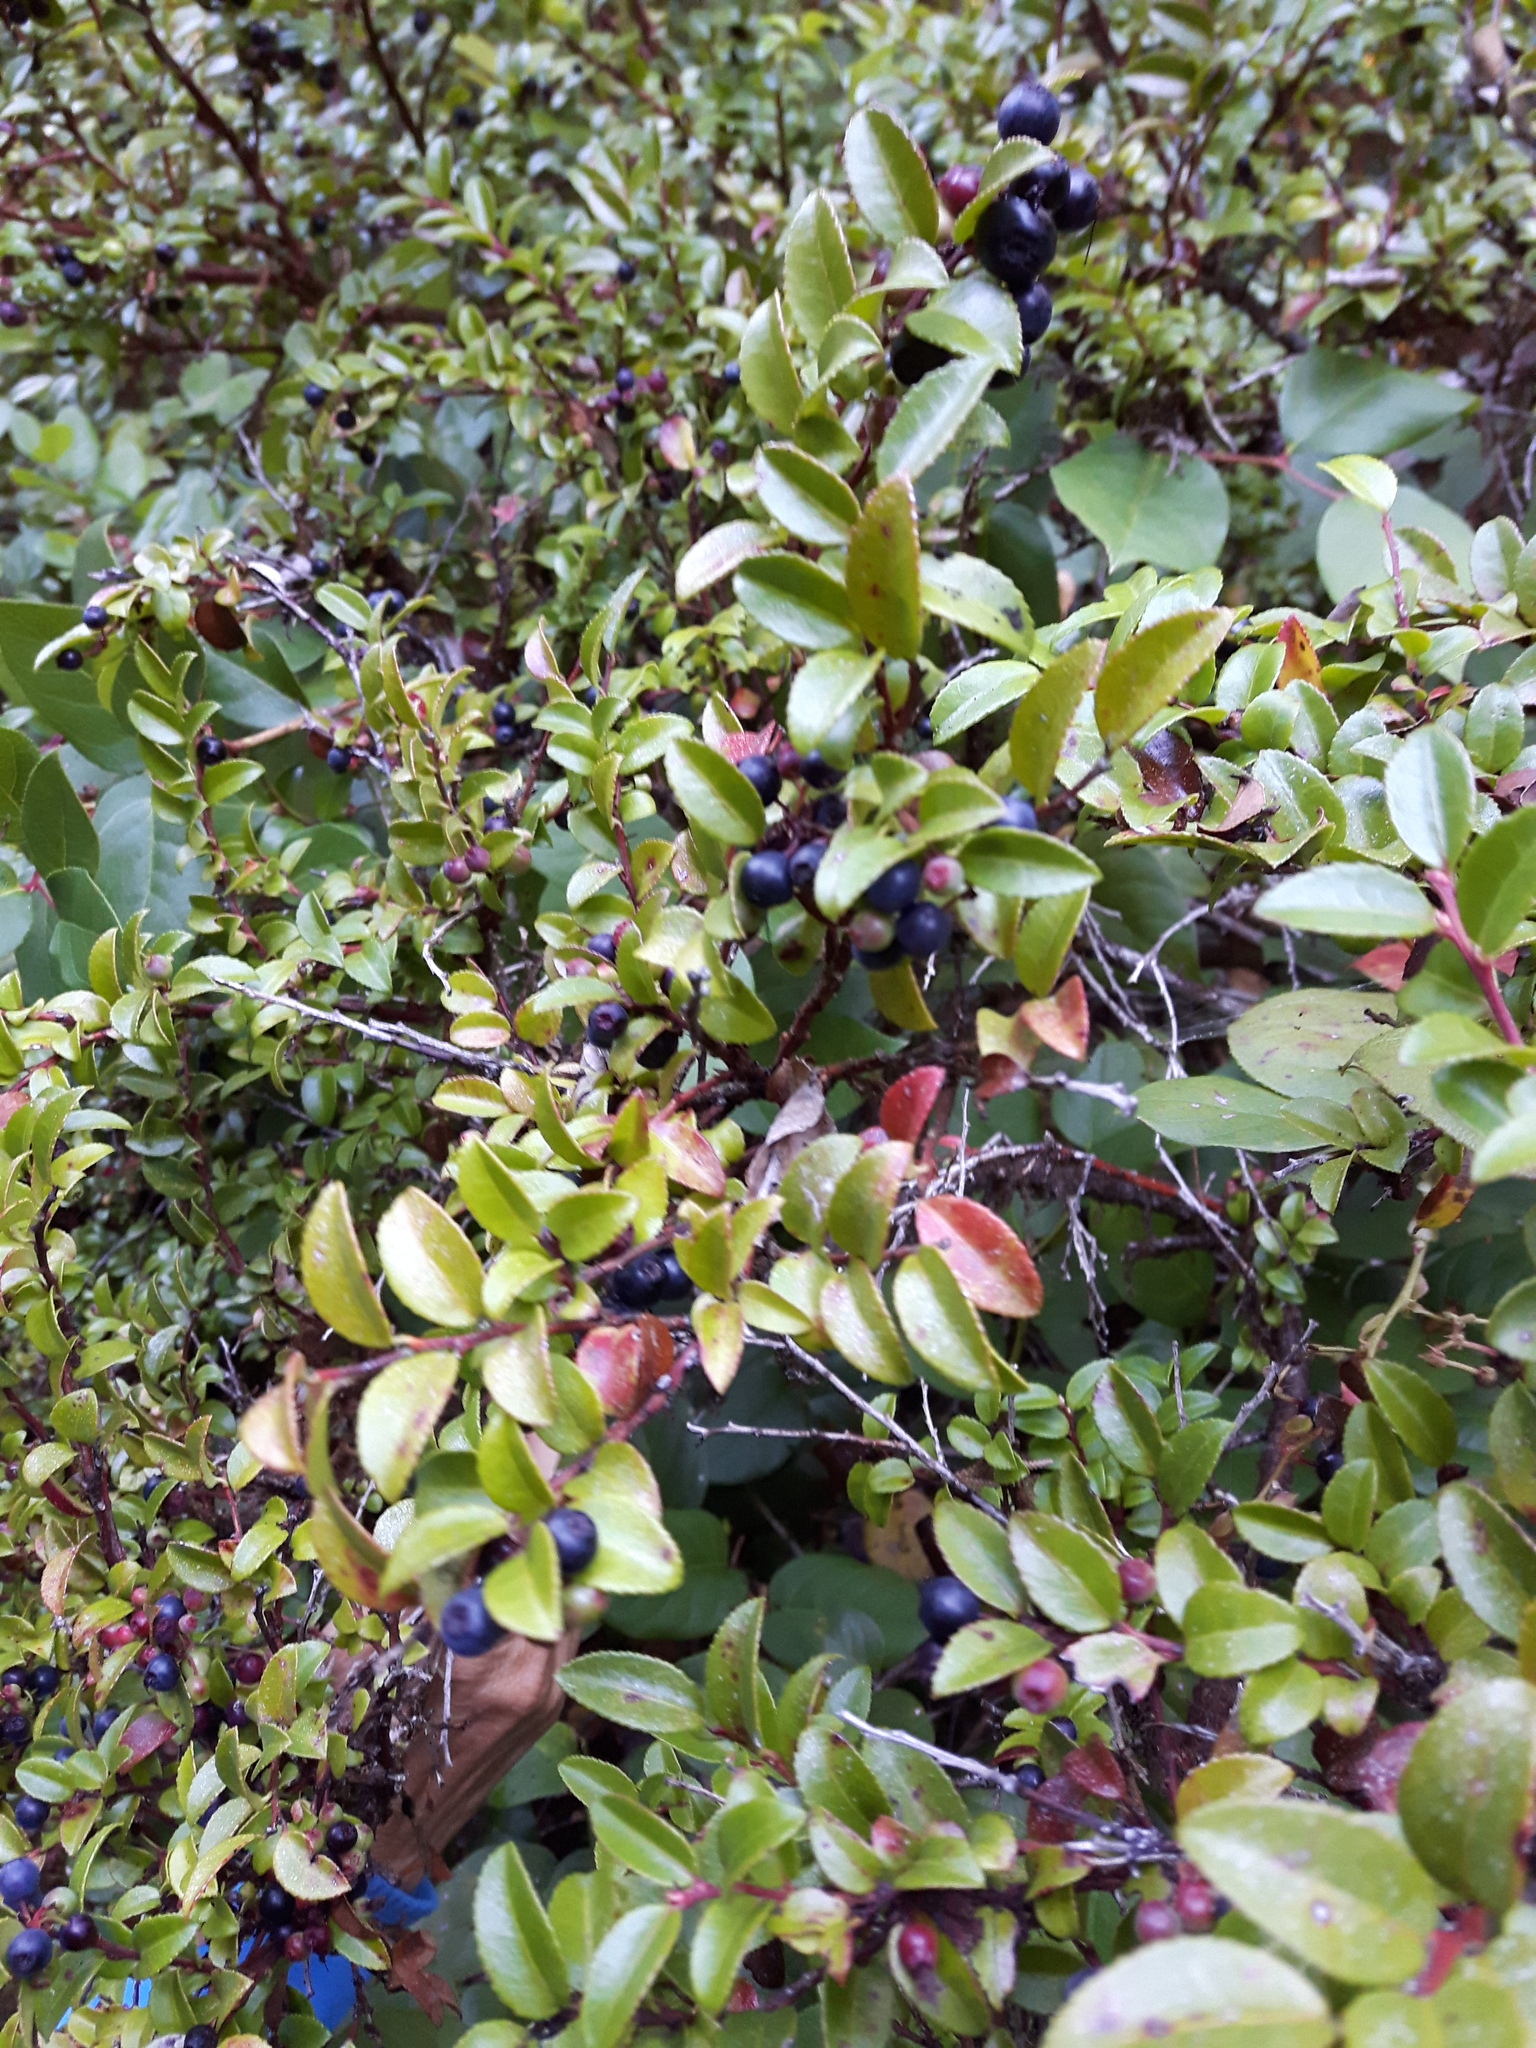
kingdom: Plantae
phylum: Tracheophyta
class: Magnoliopsida
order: Ericales
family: Ericaceae
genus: Vaccinium
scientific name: Vaccinium ovatum
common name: California-huckleberry
